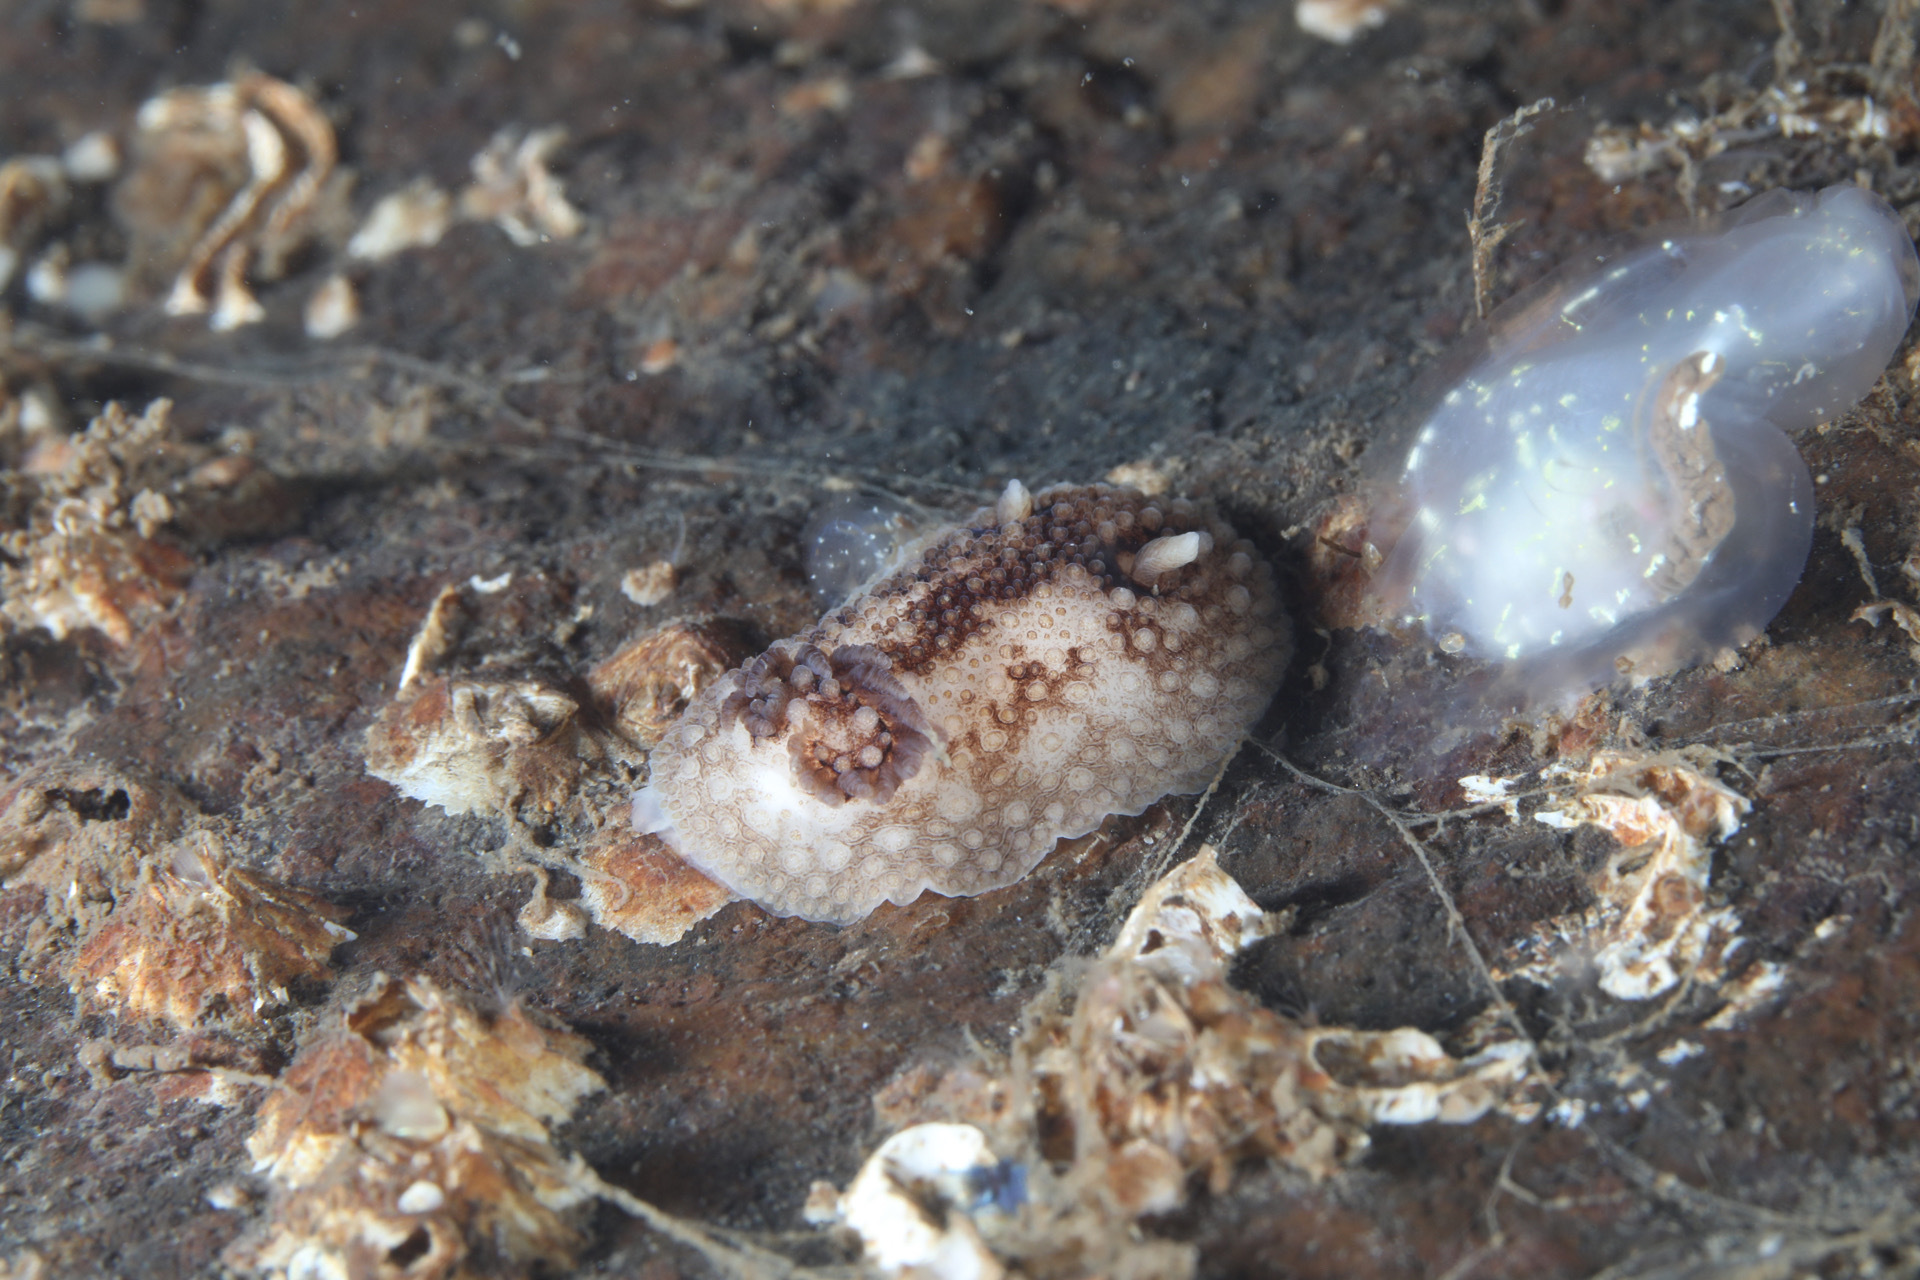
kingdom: Animalia
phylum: Mollusca
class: Gastropoda
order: Nudibranchia
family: Onchidorididae
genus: Onchidoris
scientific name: Onchidoris bilamellata
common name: Barnacle-eating onchidoris
